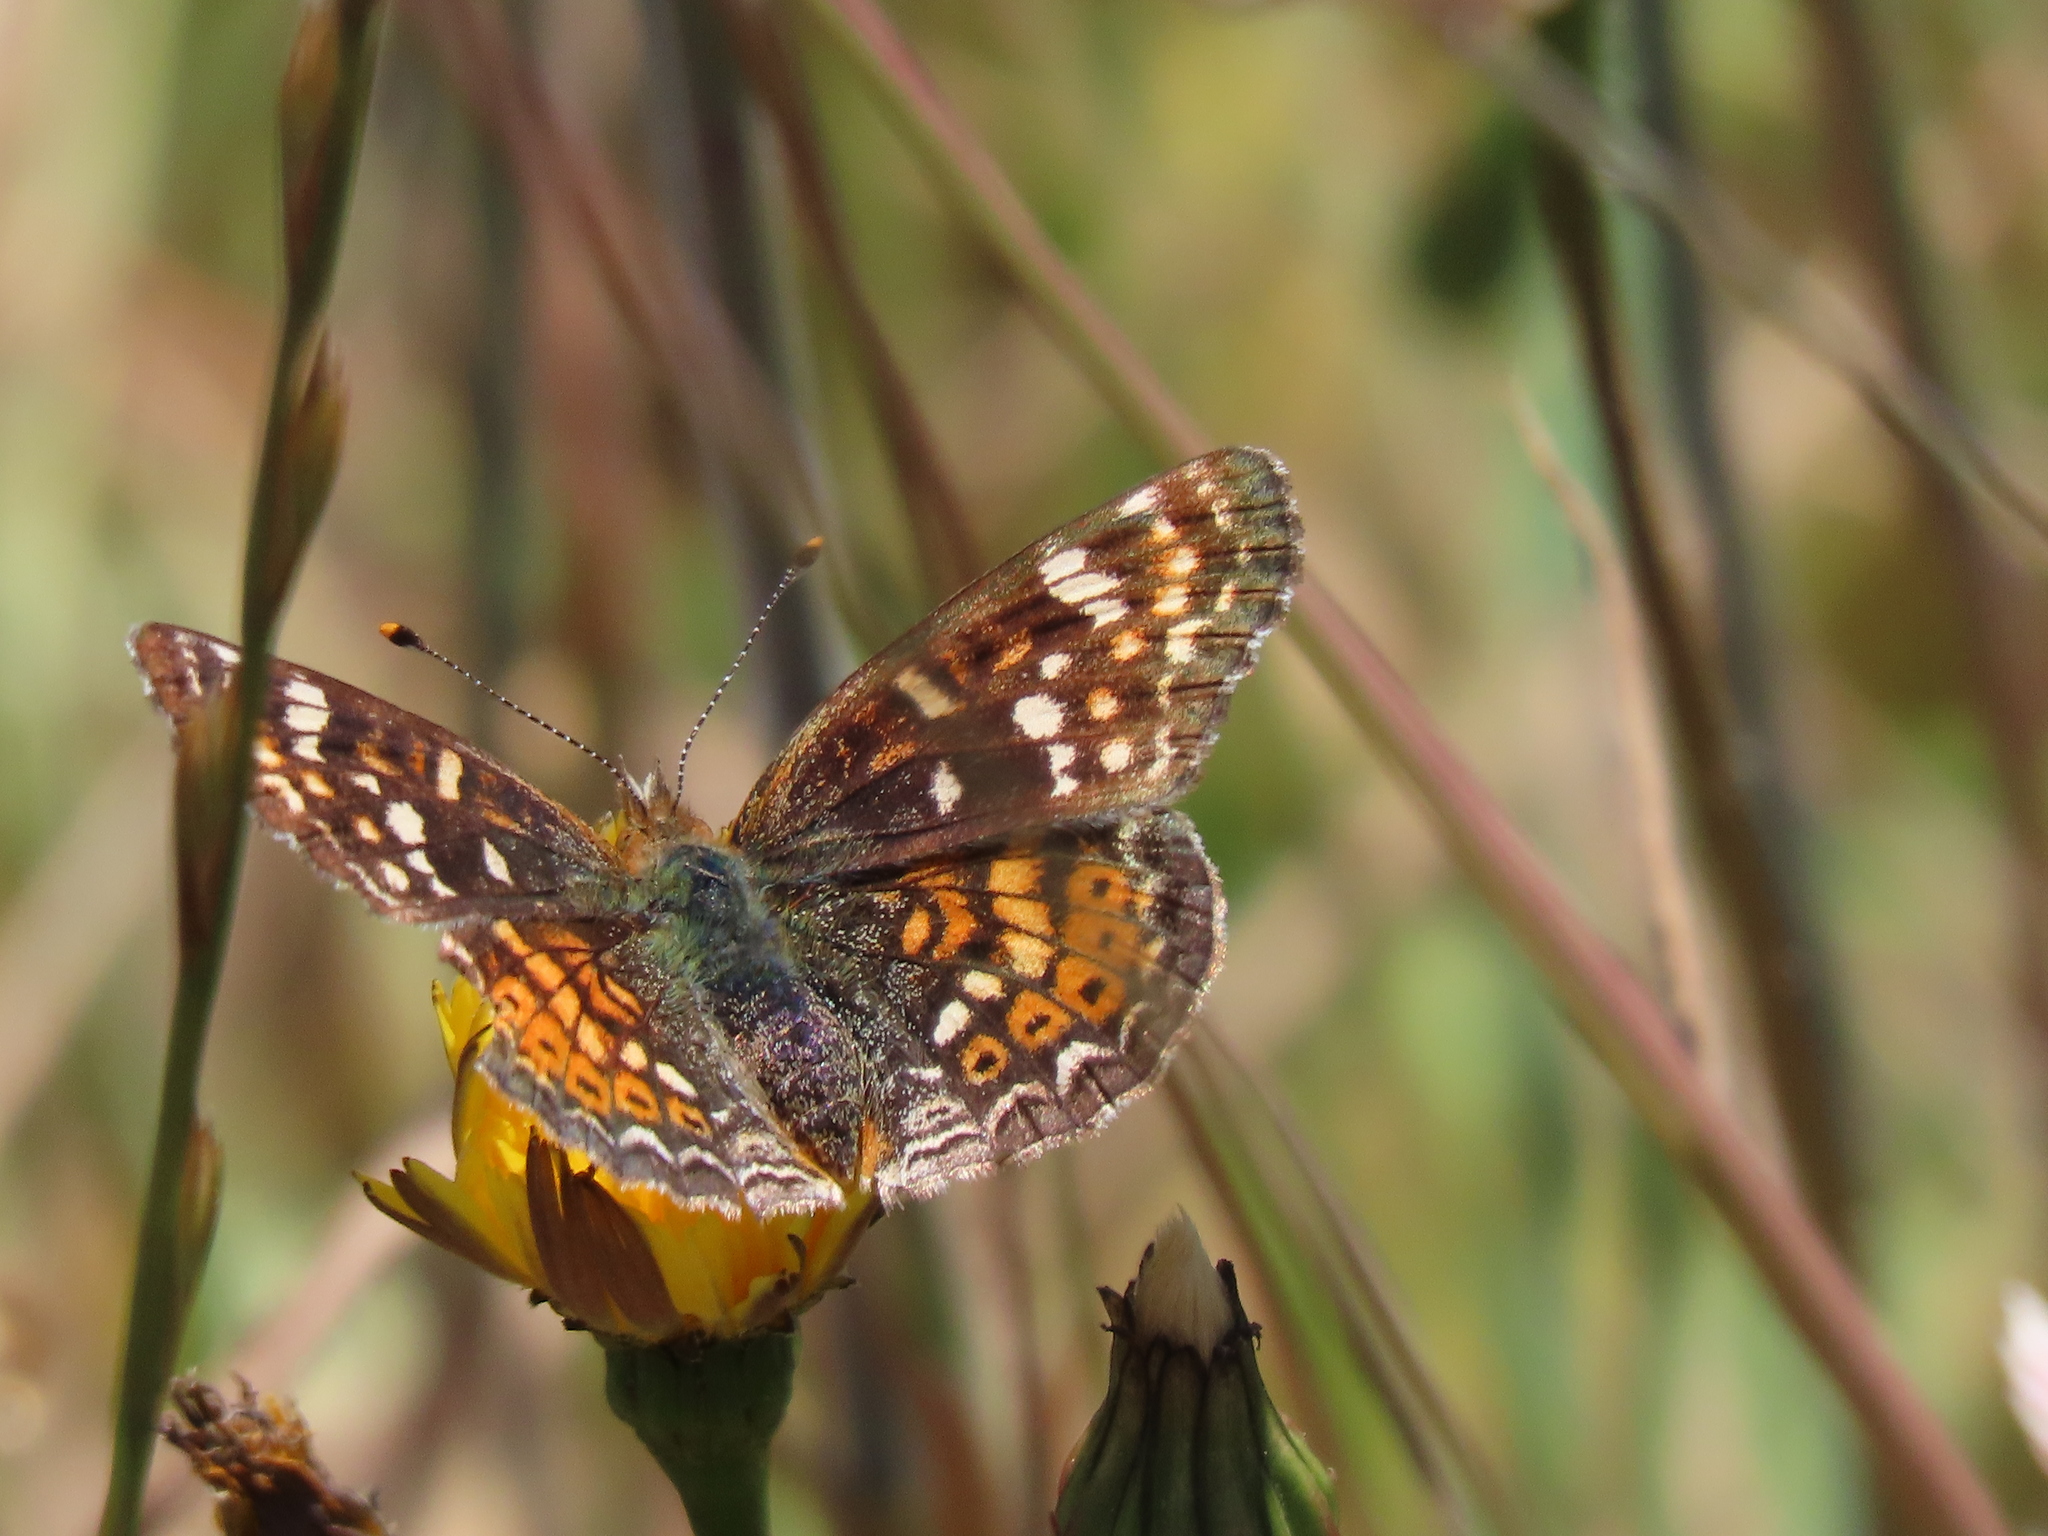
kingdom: Animalia
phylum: Arthropoda
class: Insecta
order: Lepidoptera
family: Nymphalidae
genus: Phyciodes
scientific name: Phyciodes tharos
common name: Pearl crescent
